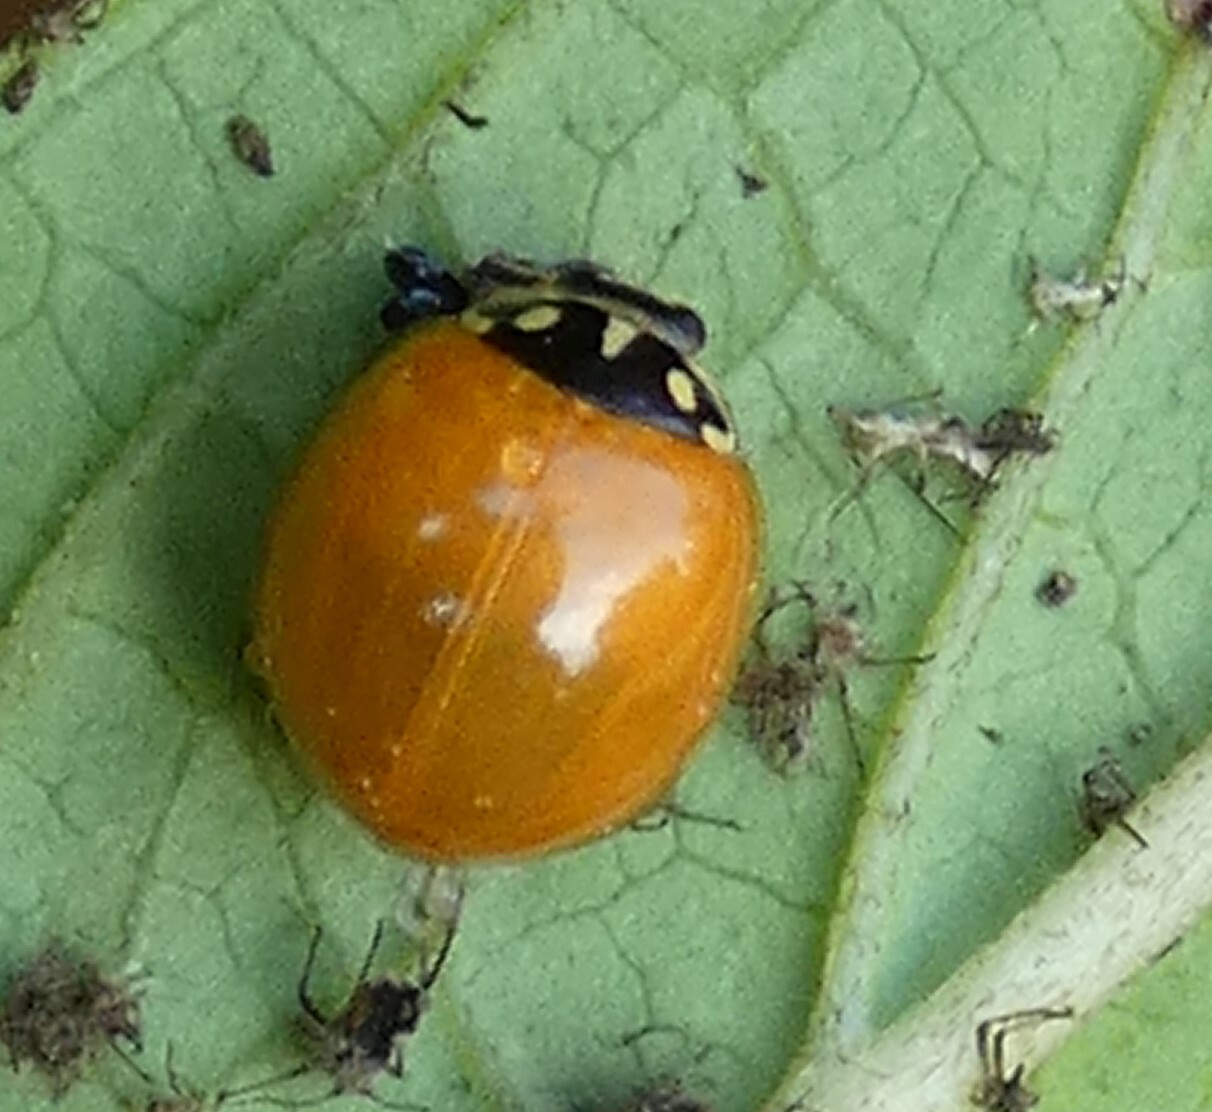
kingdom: Animalia
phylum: Arthropoda
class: Insecta
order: Coleoptera
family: Coccinellidae
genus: Cycloneda
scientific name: Cycloneda sanguinea
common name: Ladybird beetle
